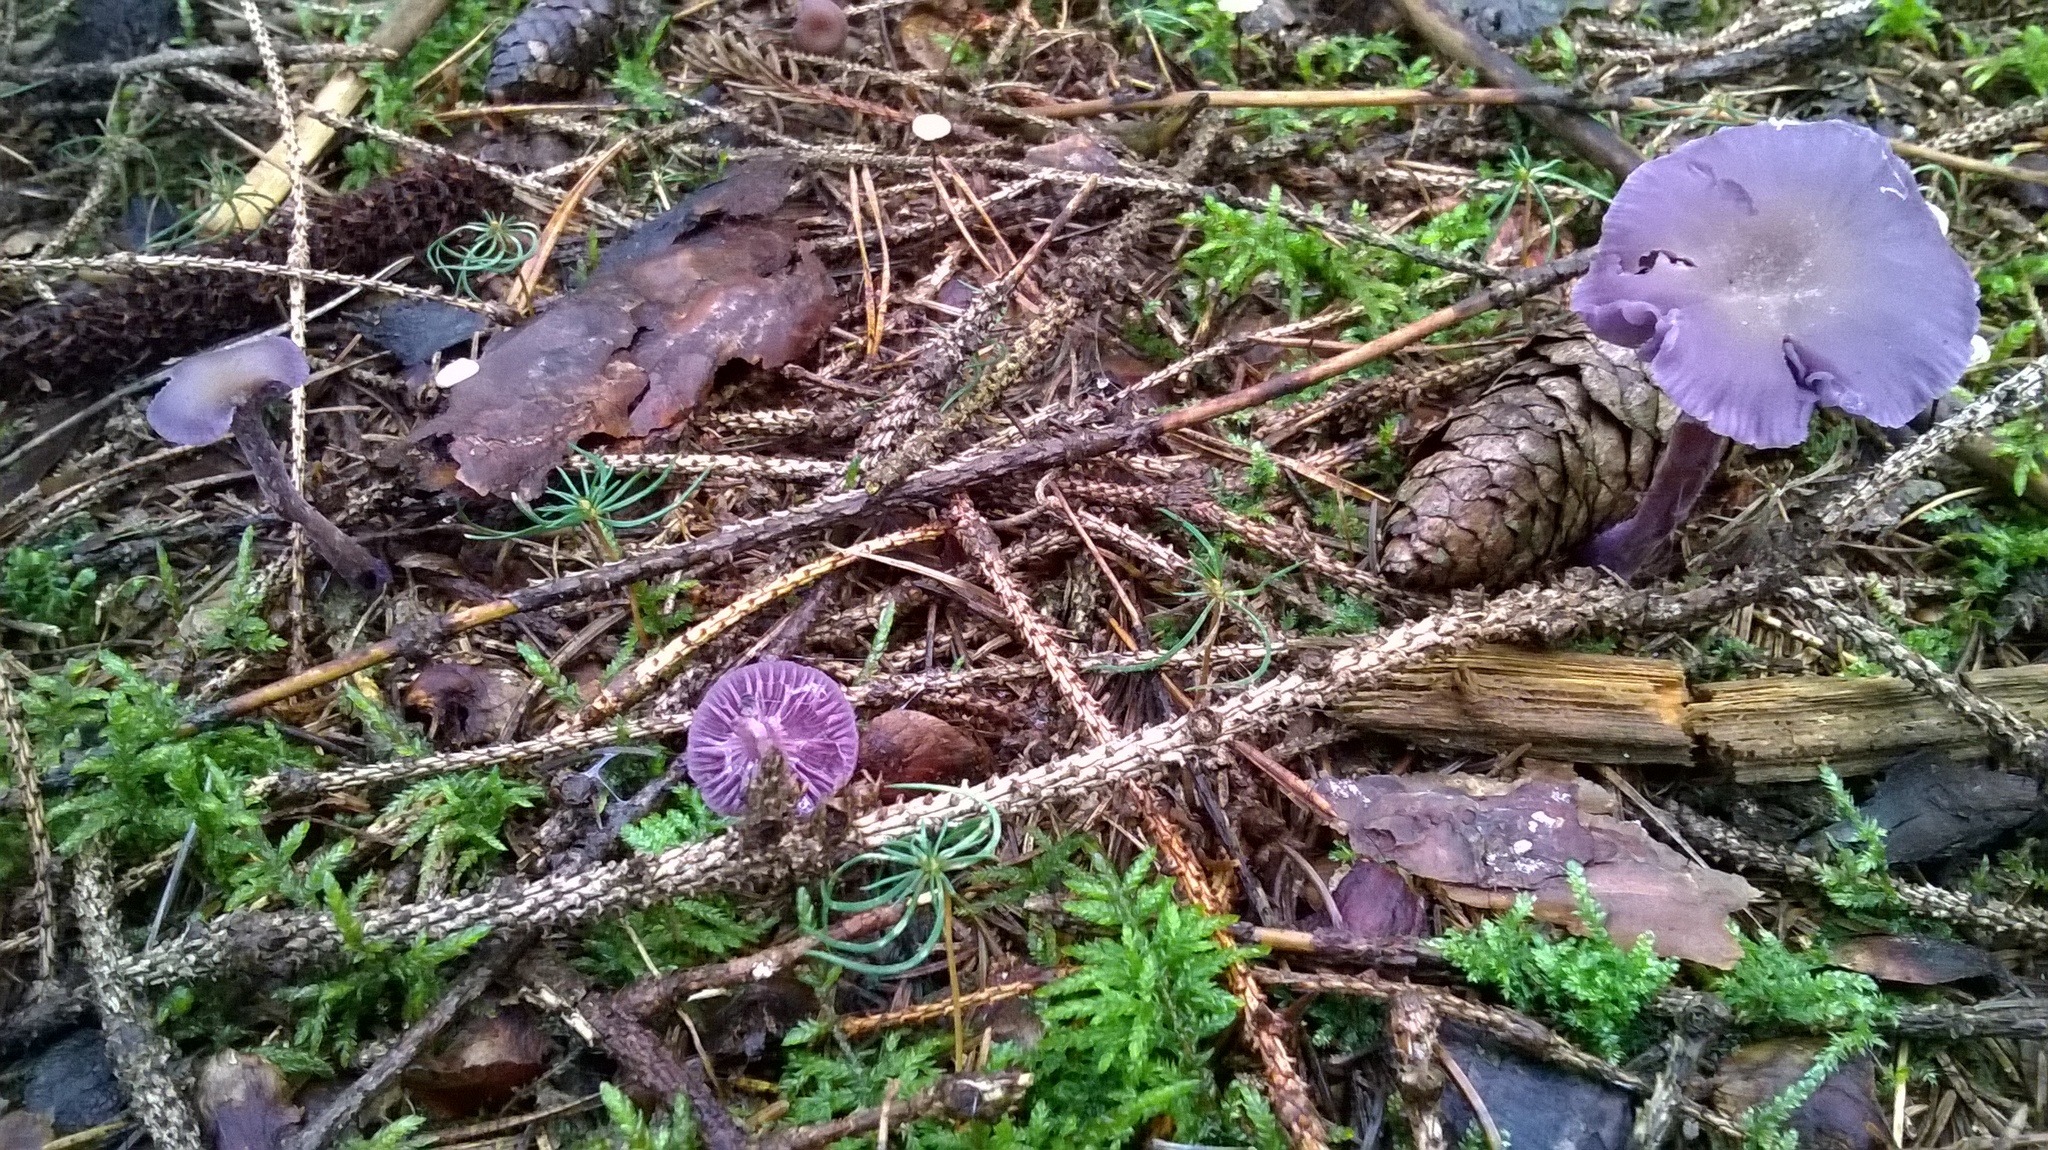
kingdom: Fungi
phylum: Basidiomycota
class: Agaricomycetes
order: Agaricales
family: Hydnangiaceae
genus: Laccaria
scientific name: Laccaria amethystina
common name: Amethyst deceiver
